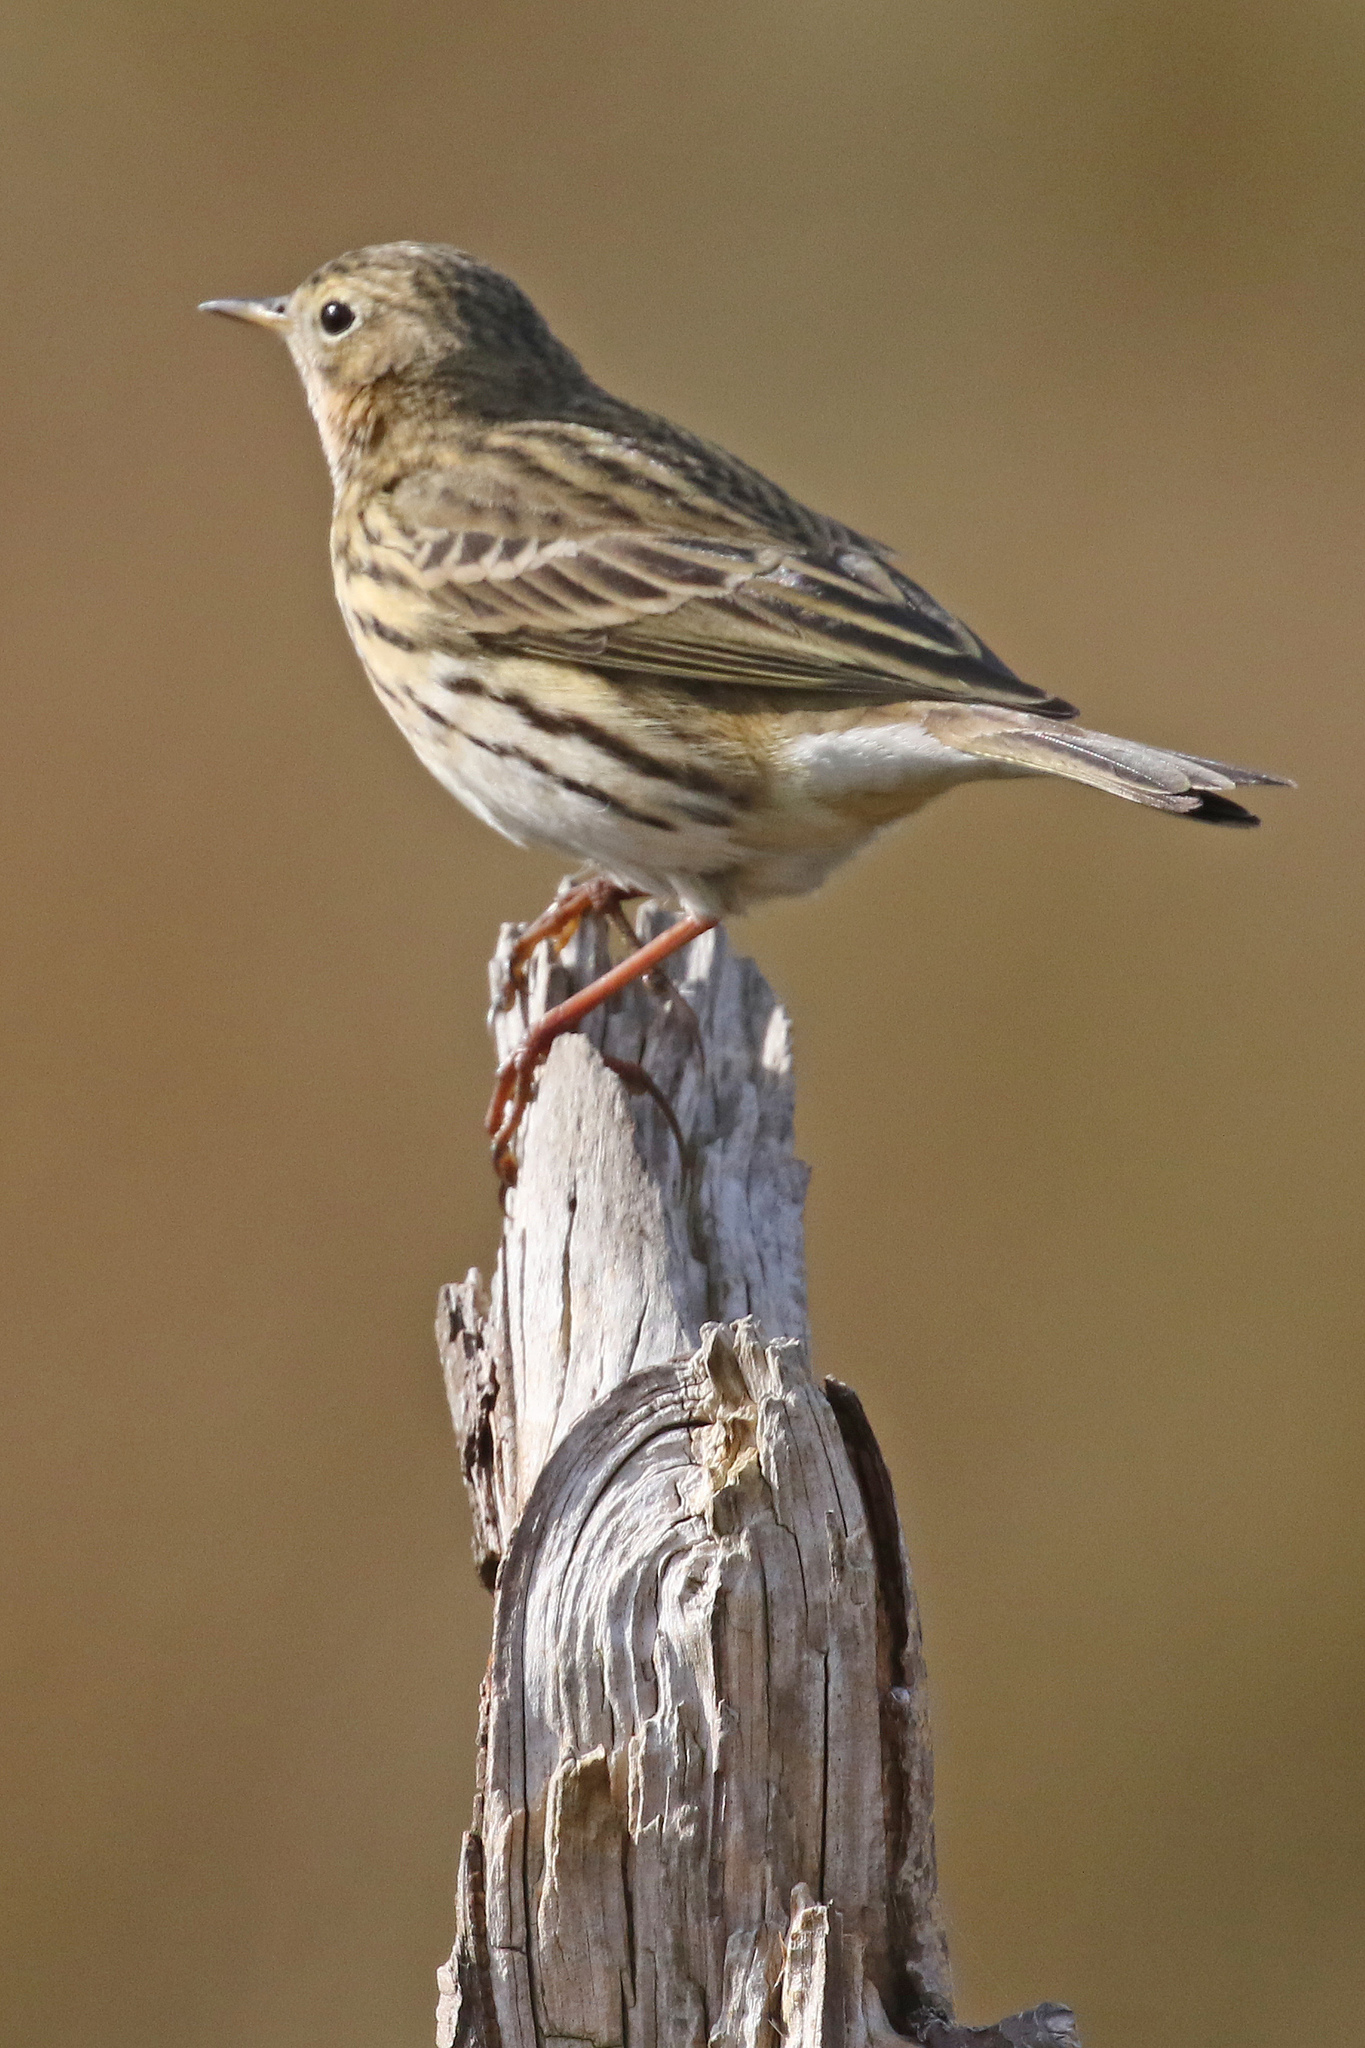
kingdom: Animalia
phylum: Chordata
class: Aves
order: Passeriformes
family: Motacillidae
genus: Anthus
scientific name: Anthus pratensis
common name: Meadow pipit
